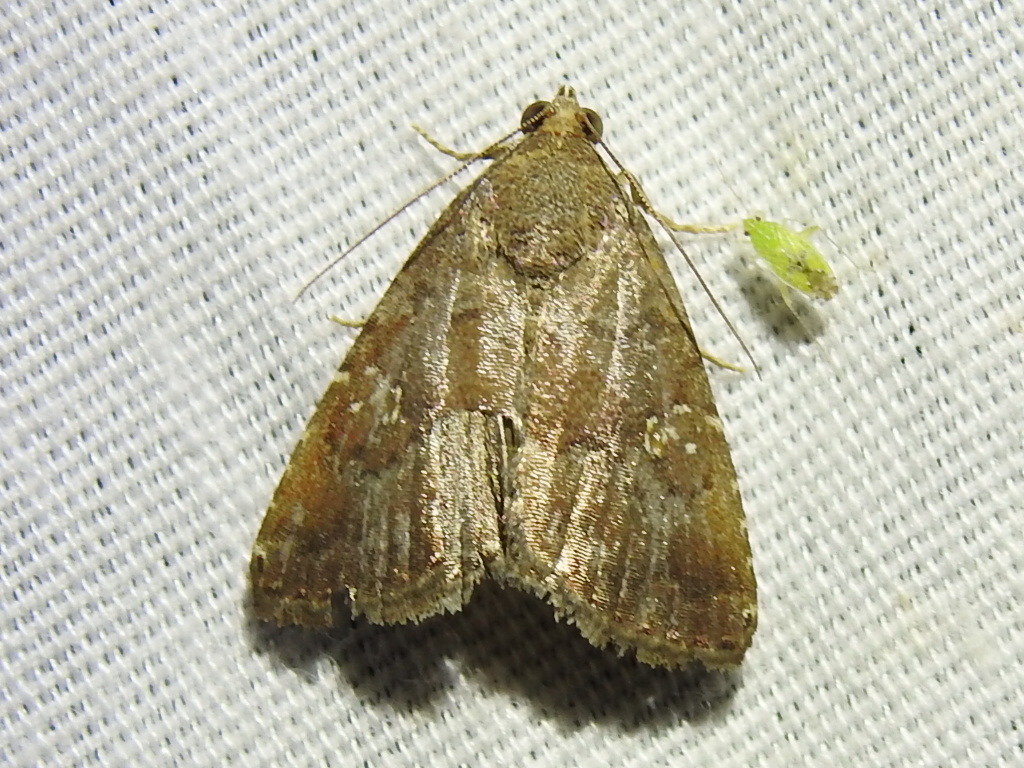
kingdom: Animalia
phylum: Arthropoda
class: Insecta
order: Lepidoptera
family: Noctuidae
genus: Amyna
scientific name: Amyna stricta
